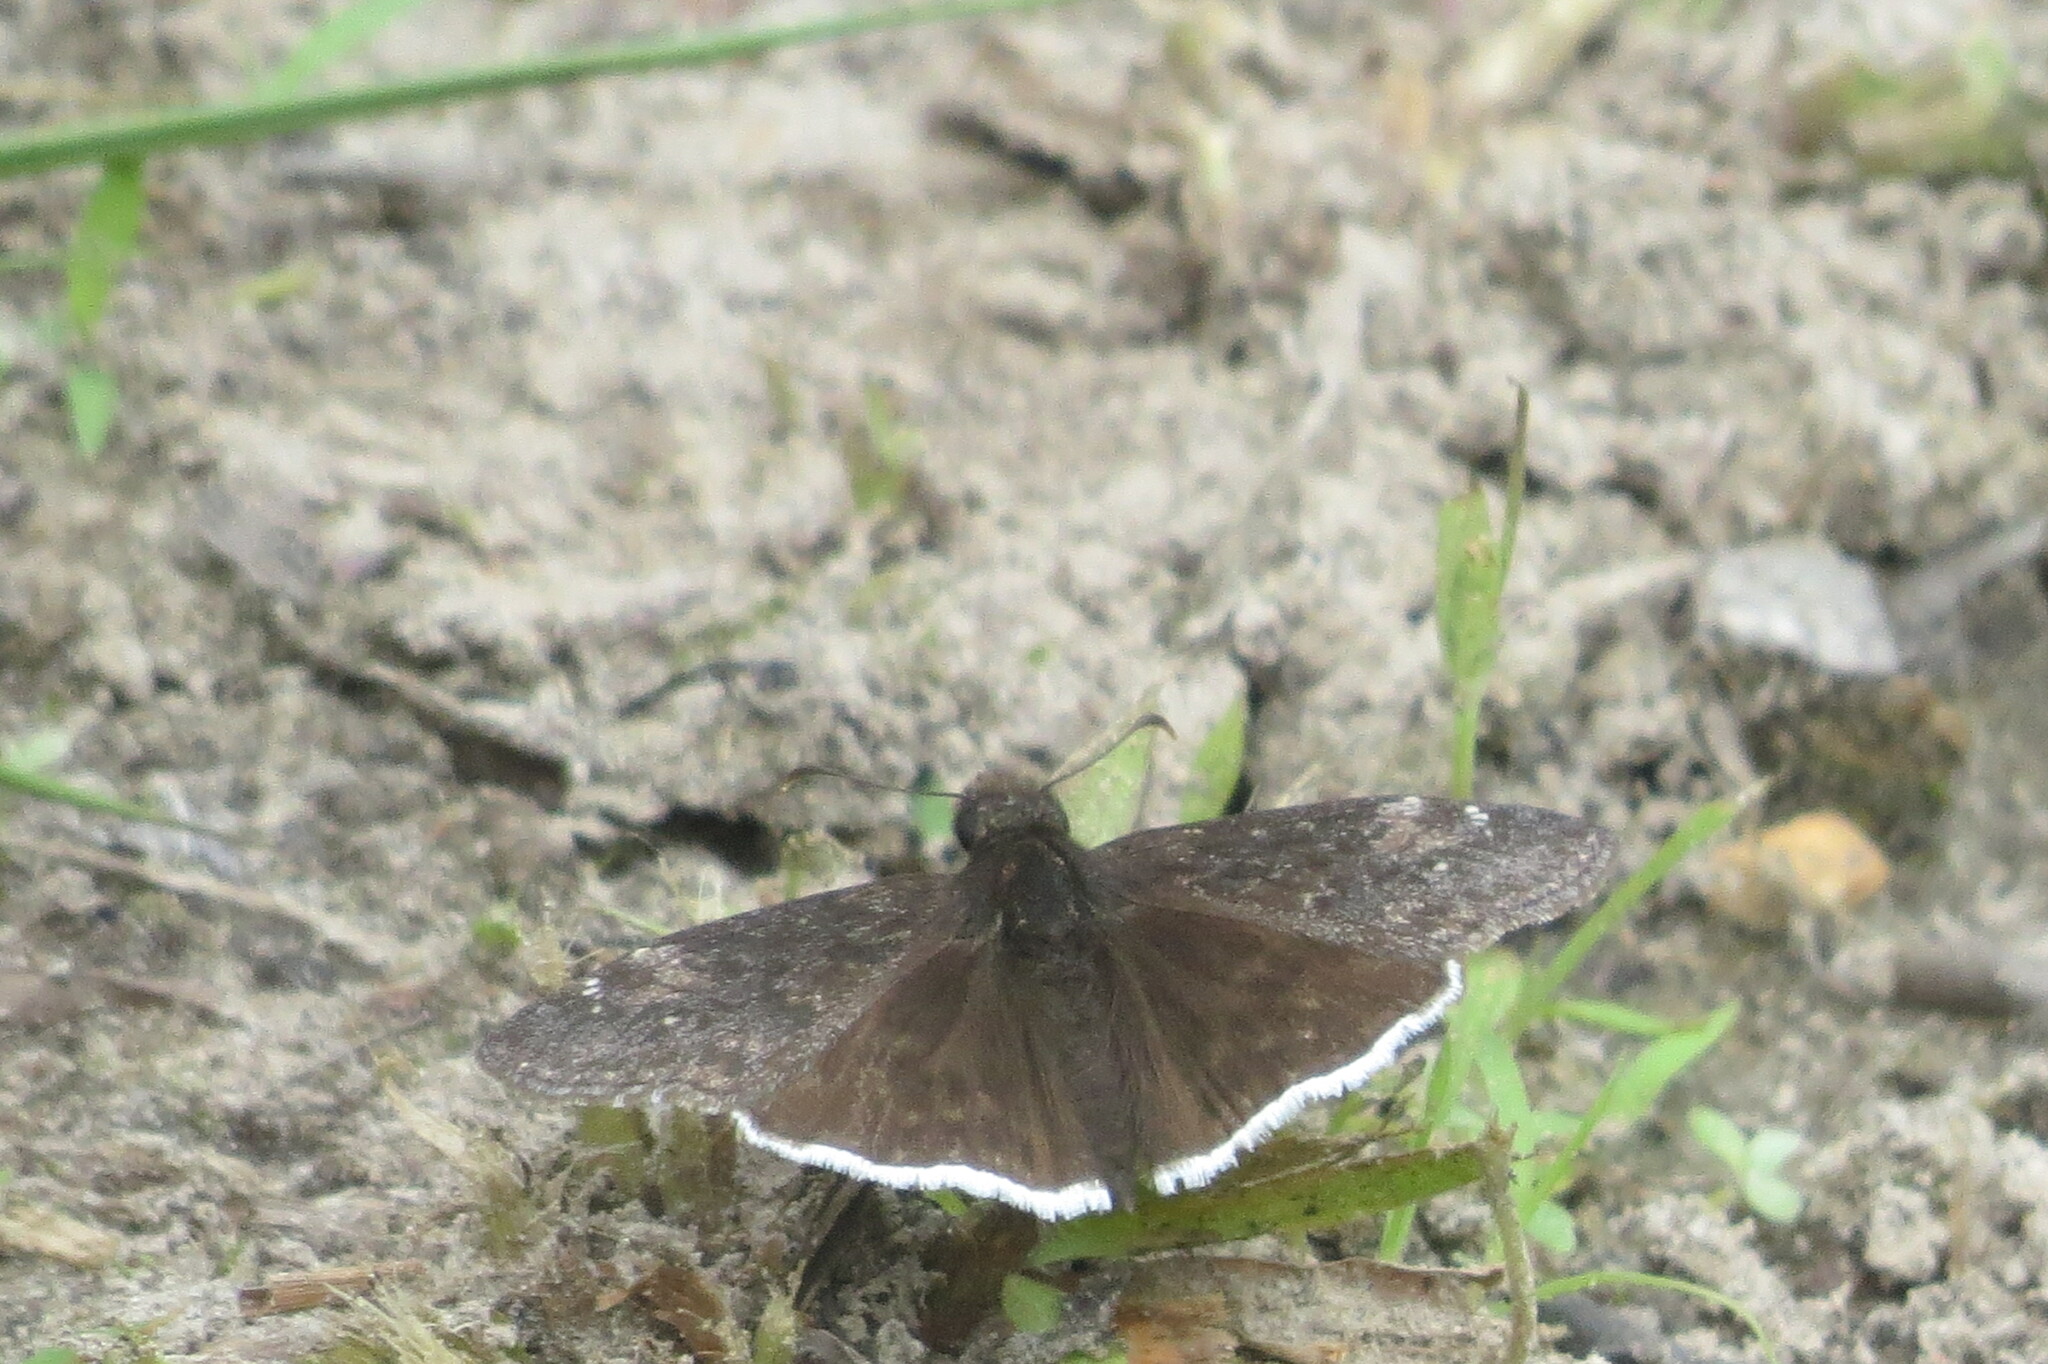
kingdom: Animalia
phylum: Arthropoda
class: Insecta
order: Lepidoptera
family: Hesperiidae
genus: Erynnis
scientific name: Erynnis funeralis
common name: Funereal duskywing
